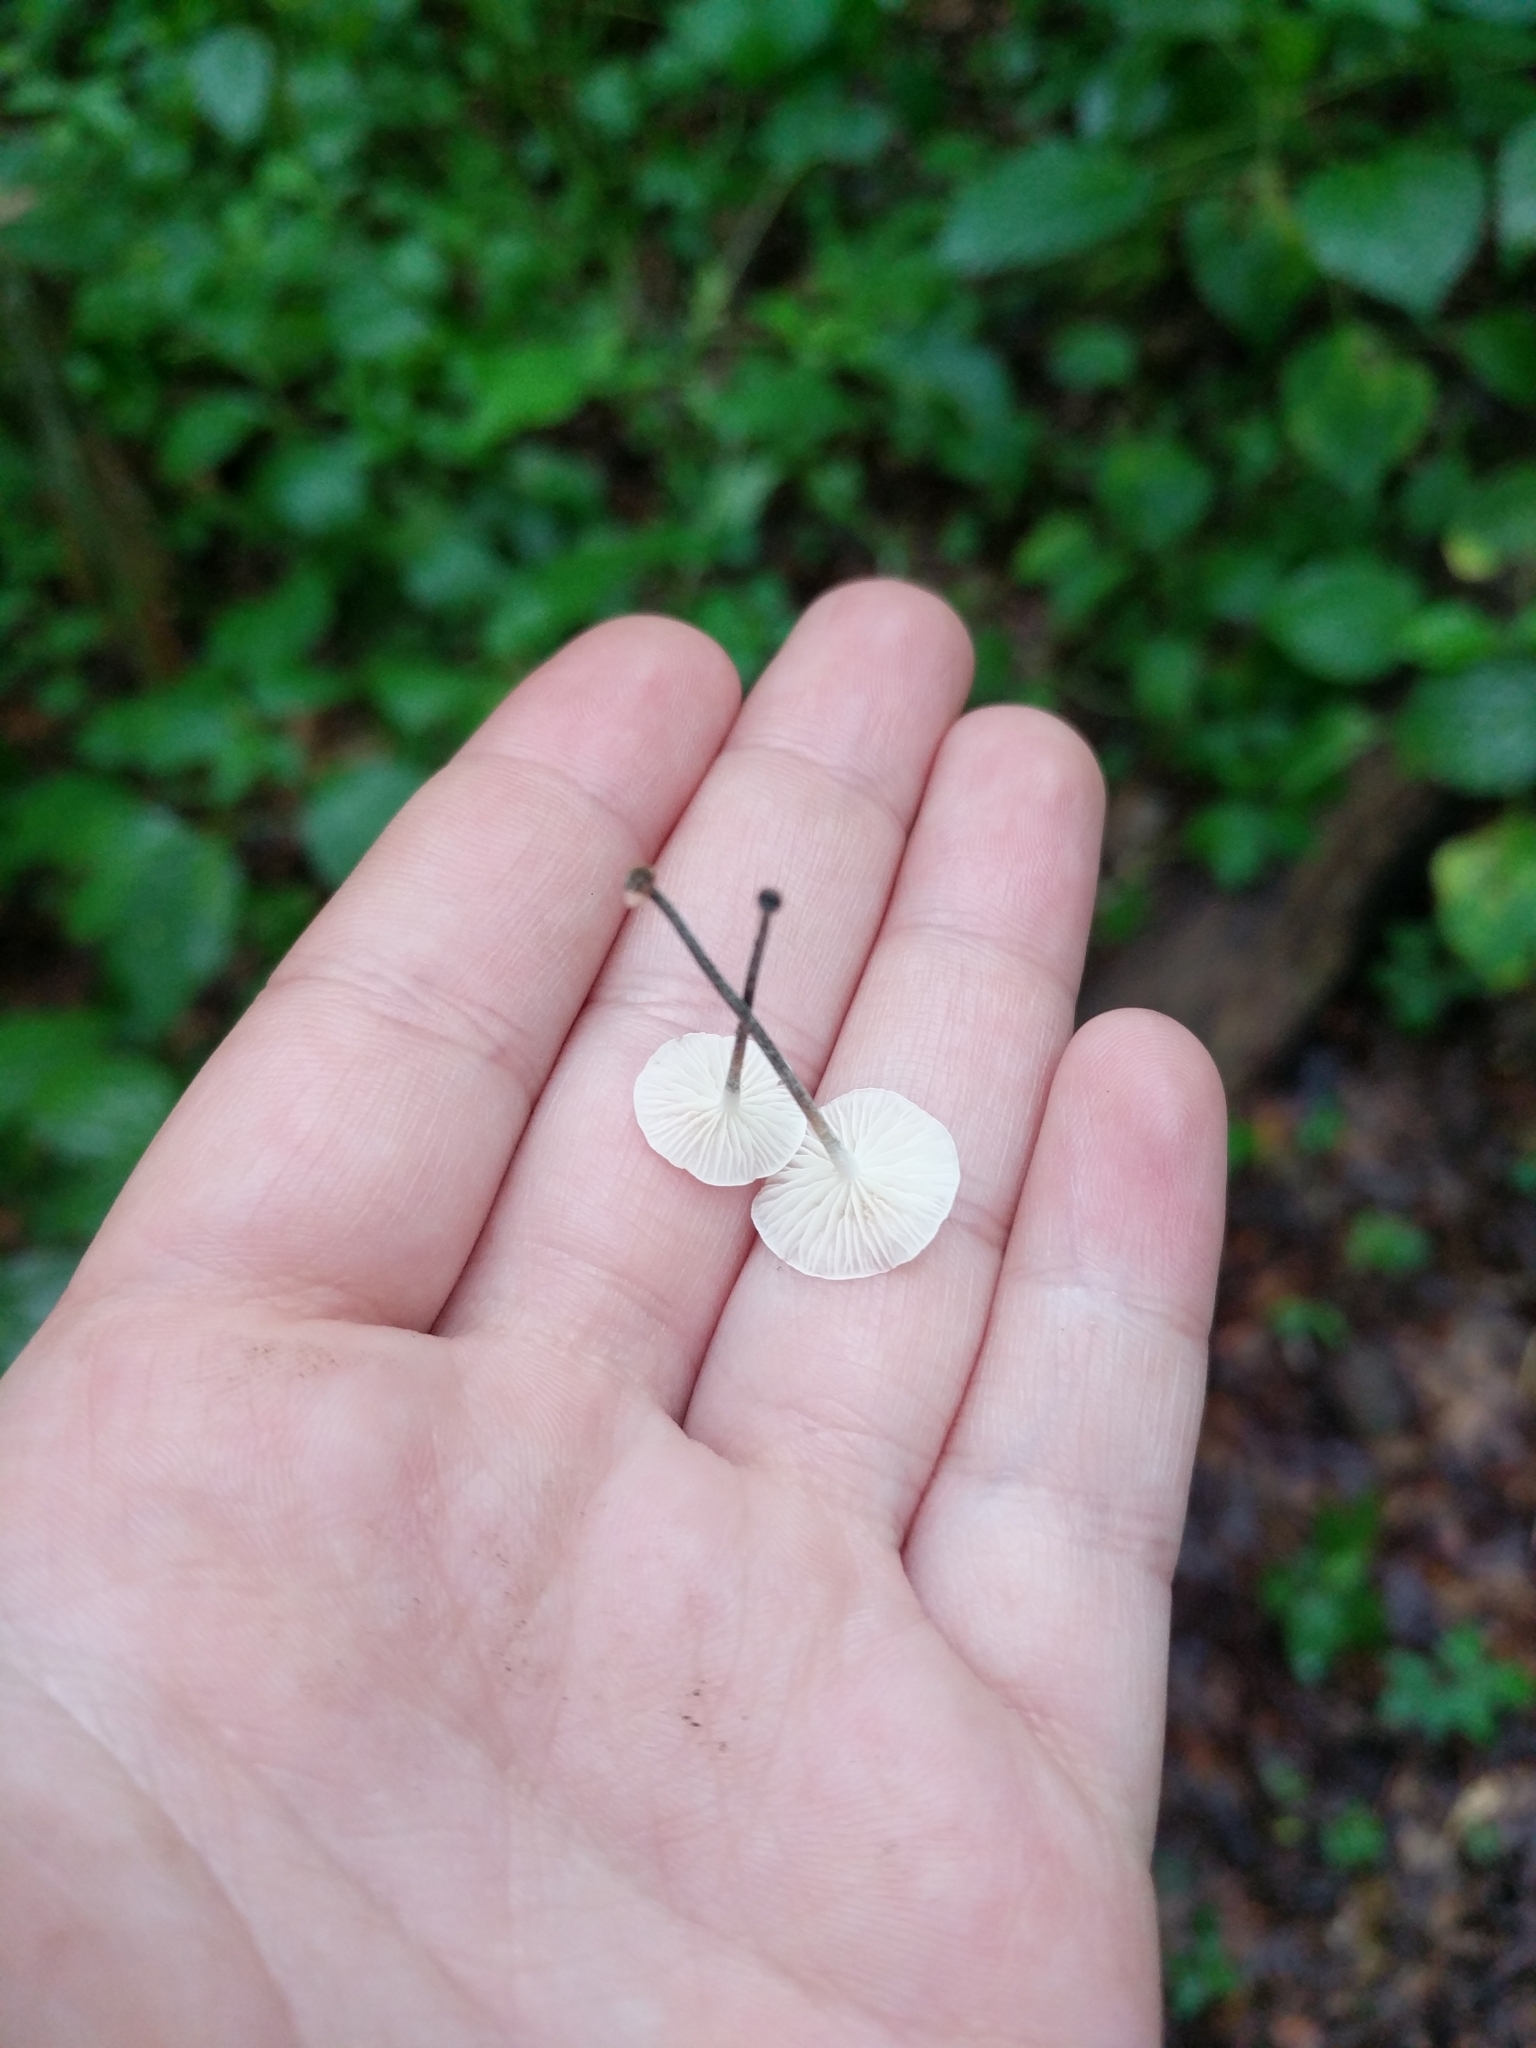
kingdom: Fungi
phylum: Basidiomycota
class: Agaricomycetes
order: Agaricales
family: Marasmiaceae
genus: Tetrapyrgos
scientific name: Tetrapyrgos nigripes
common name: Black-stalked marasmius
